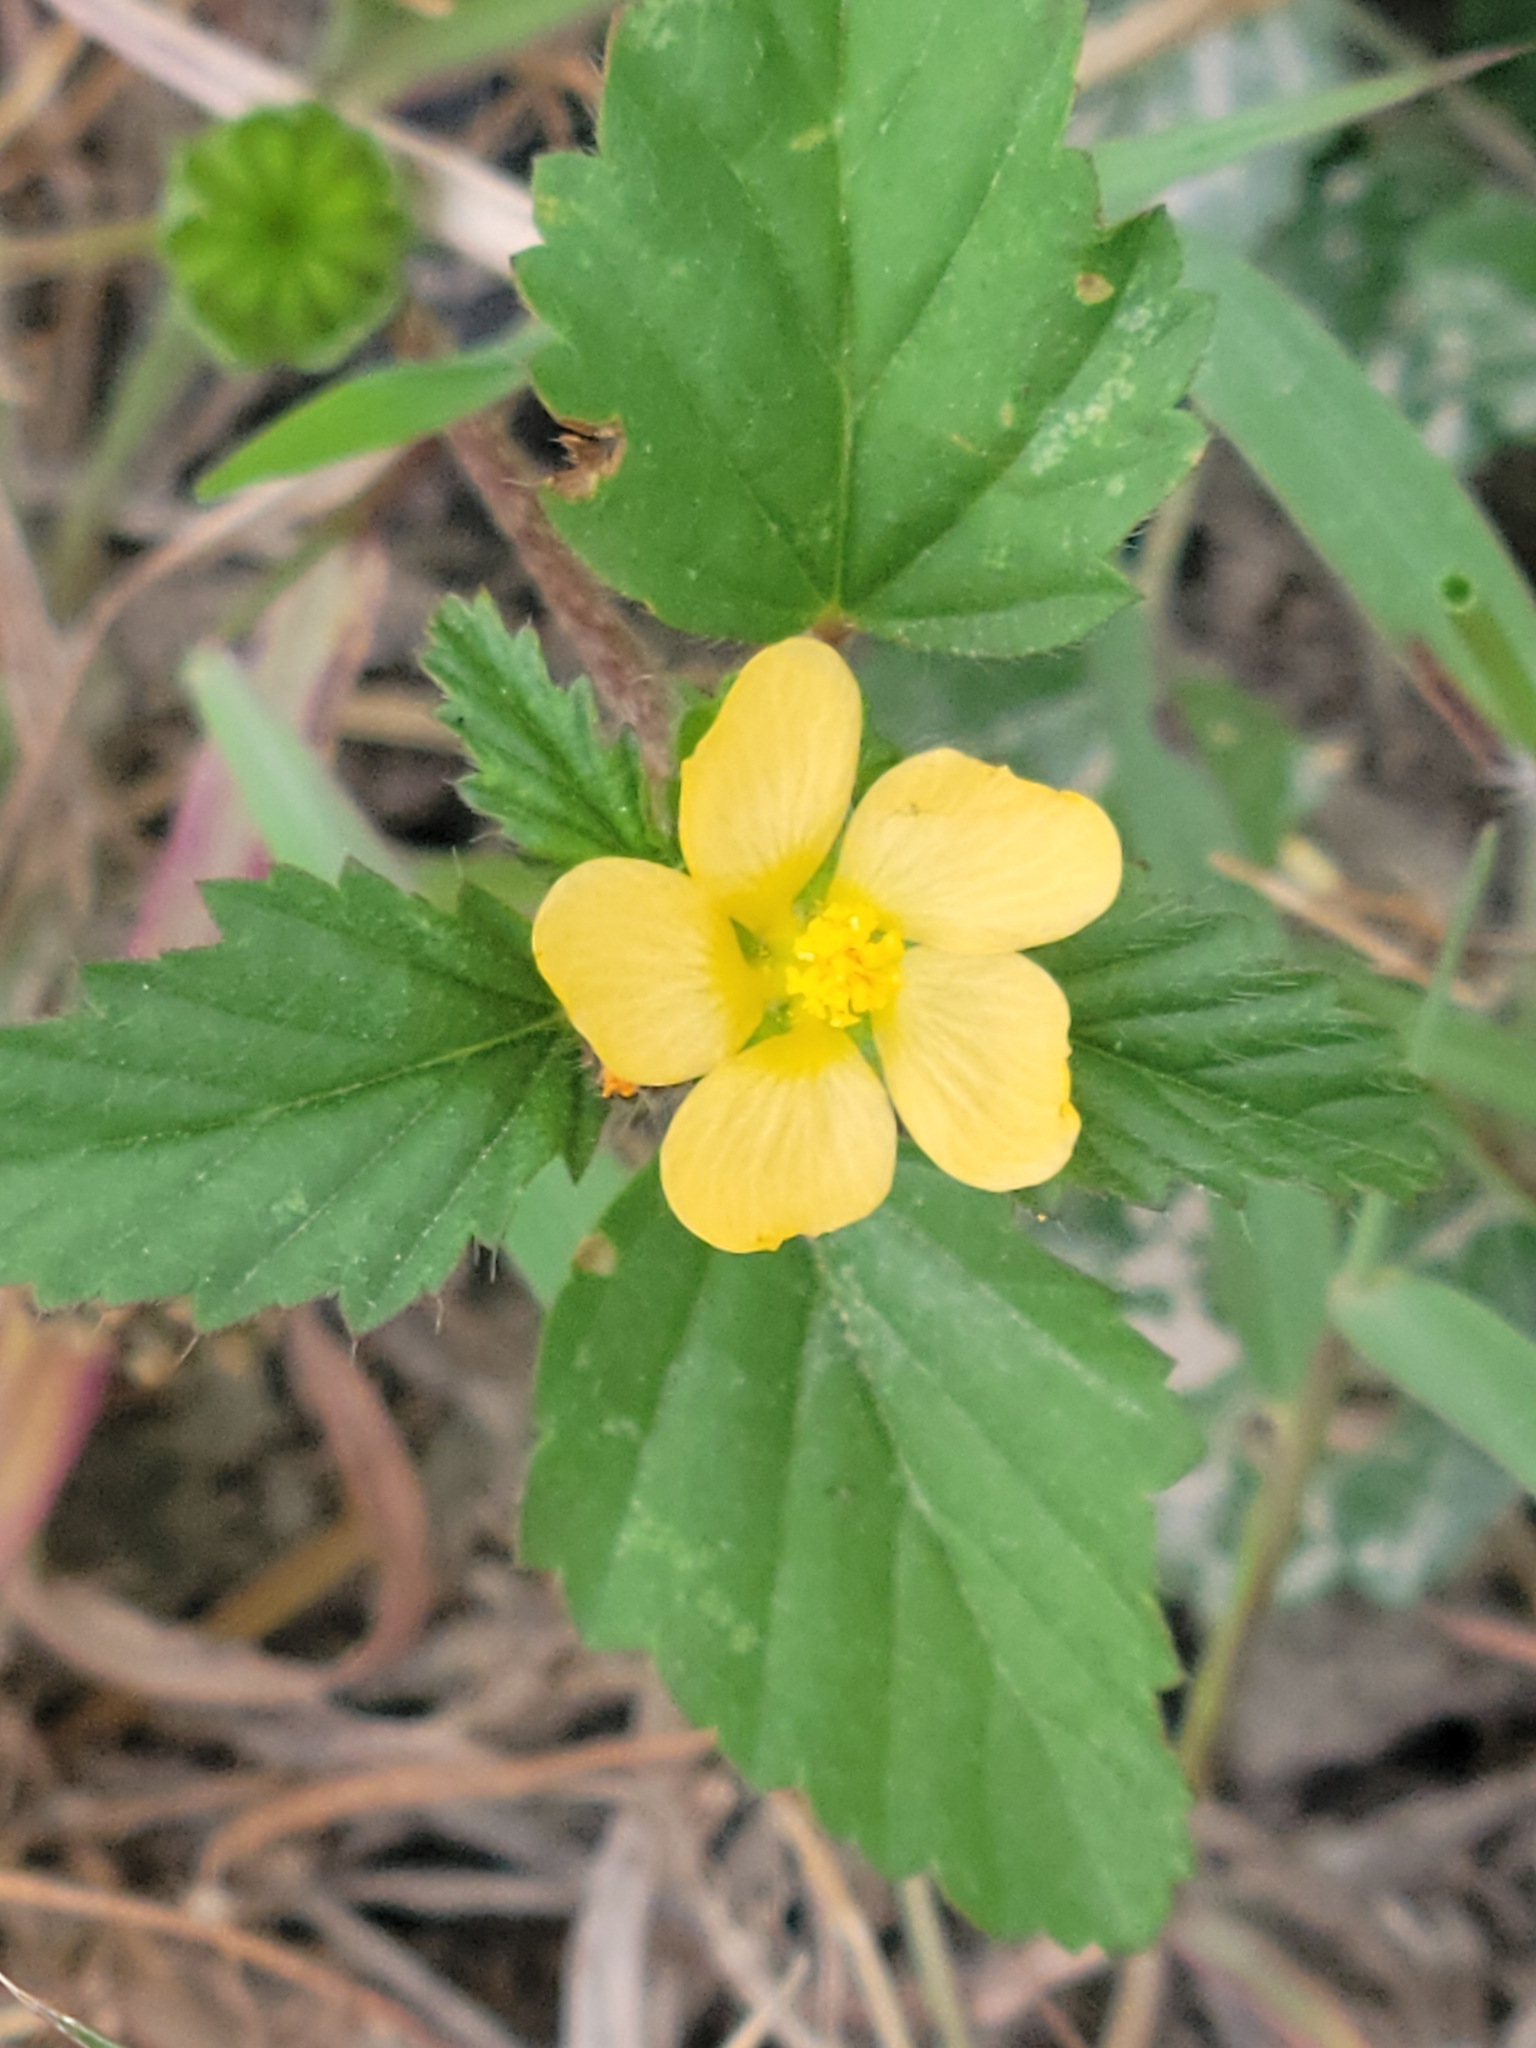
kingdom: Plantae
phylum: Tracheophyta
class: Magnoliopsida
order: Malvales
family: Malvaceae
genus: Malvastrum
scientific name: Malvastrum coromandelianum
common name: Threelobe false mallow
